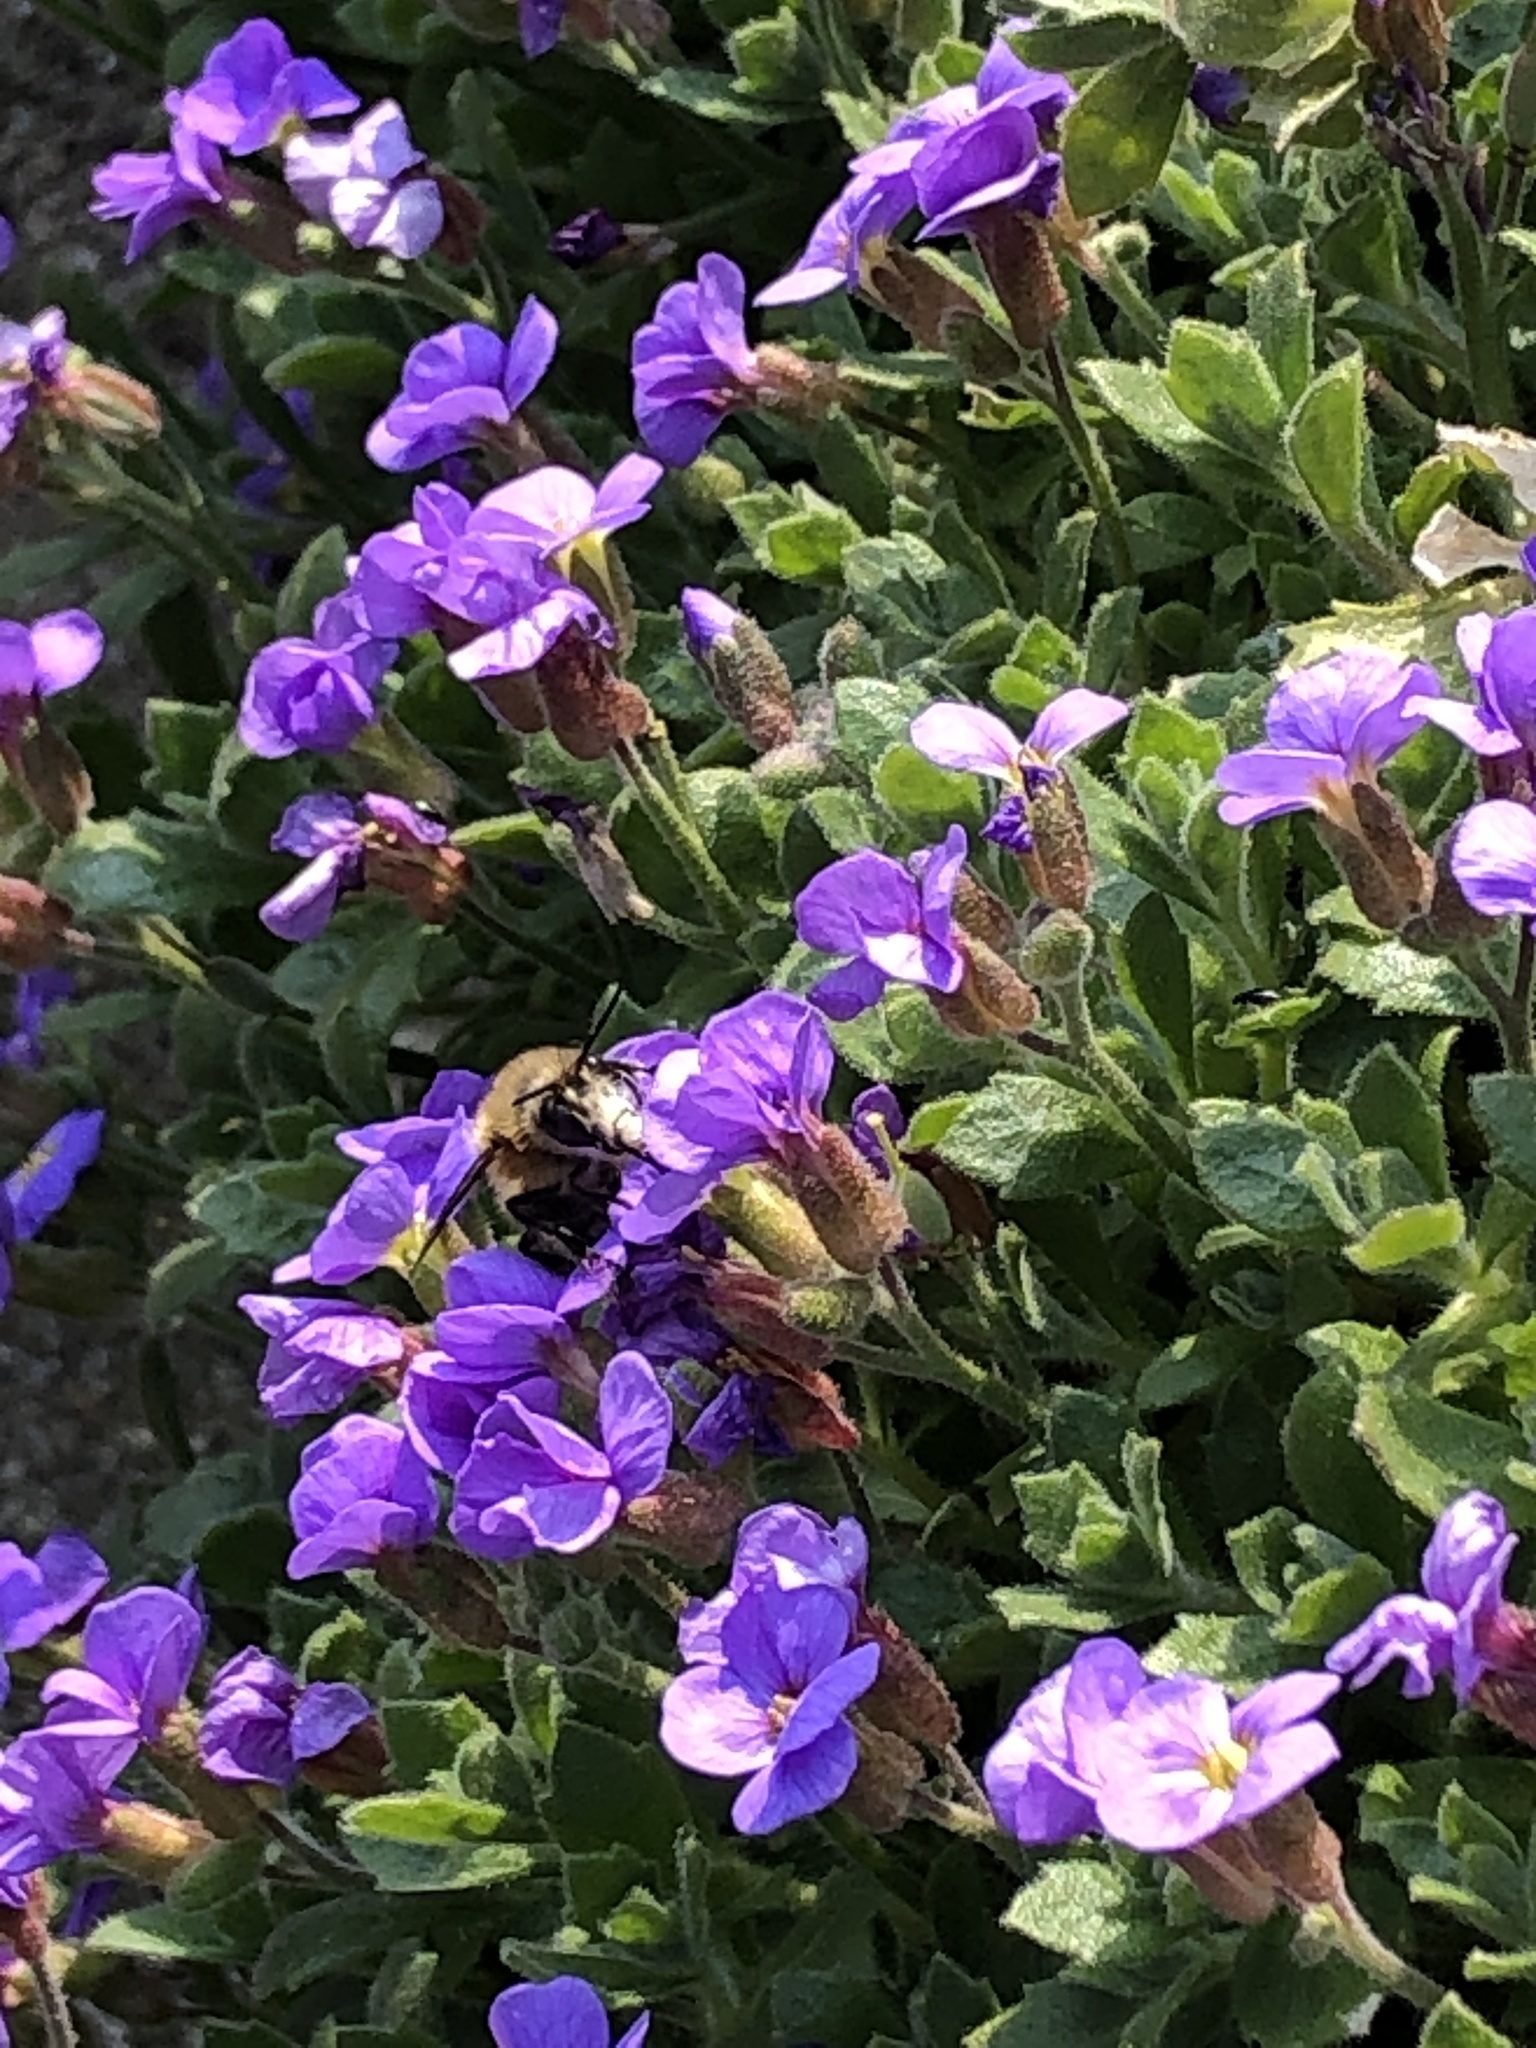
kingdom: Animalia
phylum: Arthropoda
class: Insecta
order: Hymenoptera
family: Apidae
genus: Anthophora
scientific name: Anthophora plumipes
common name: Hairy-footed flower bee
